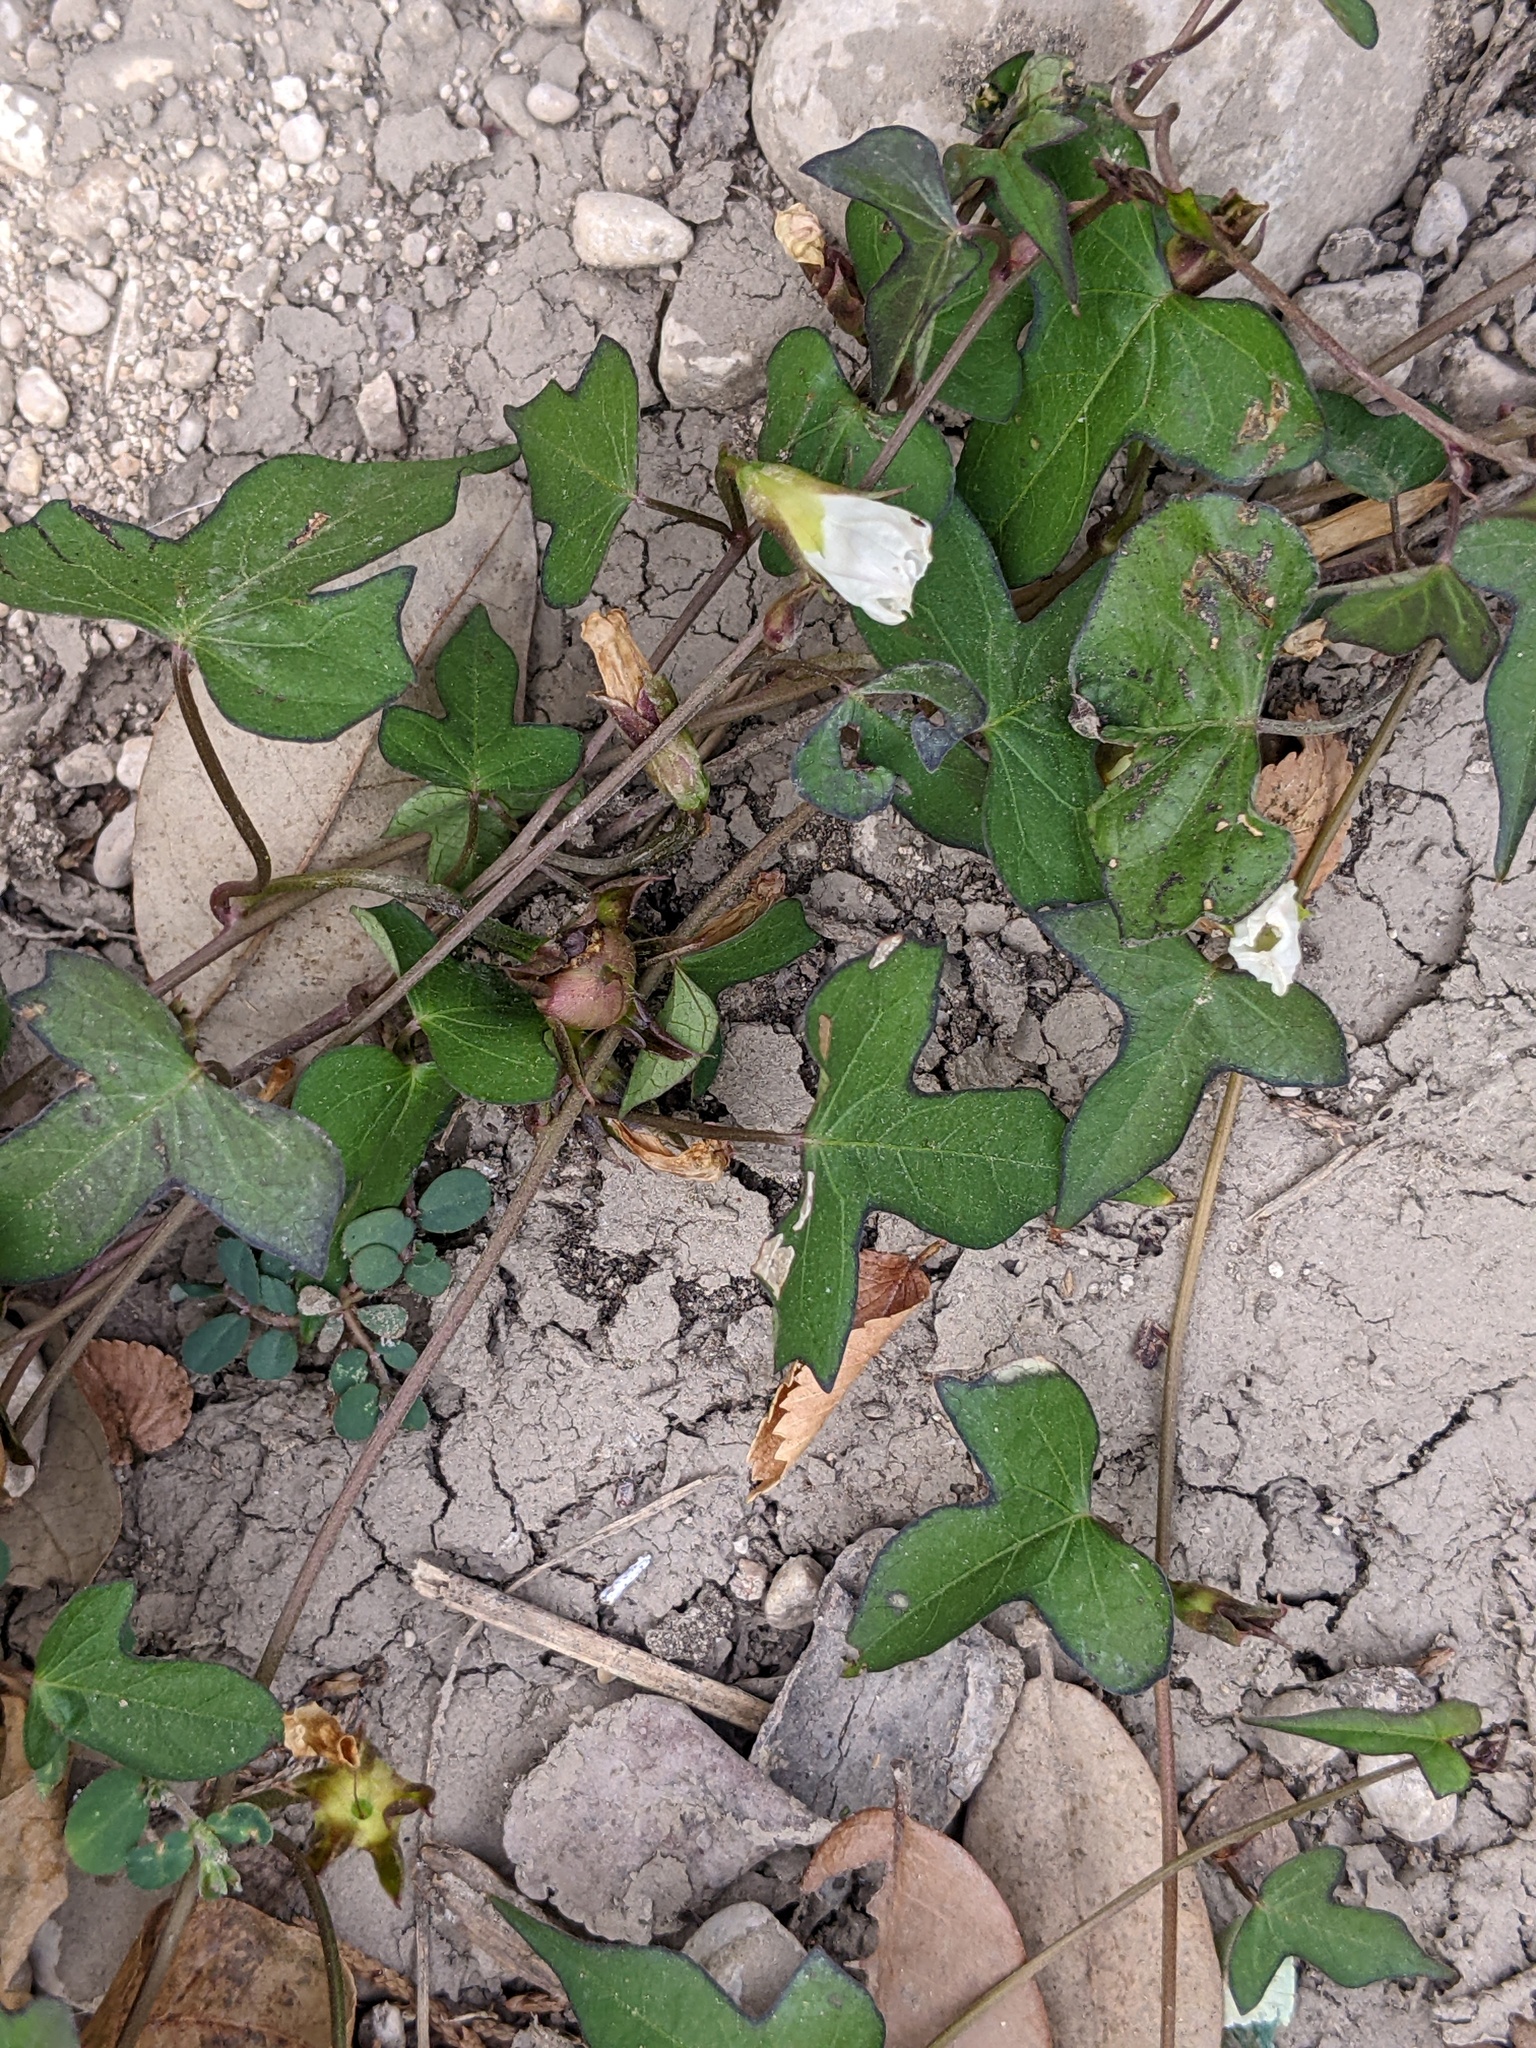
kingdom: Plantae
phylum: Tracheophyta
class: Magnoliopsida
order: Solanales
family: Convolvulaceae
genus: Ipomoea
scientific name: Ipomoea lacunosa
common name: White morning-glory
